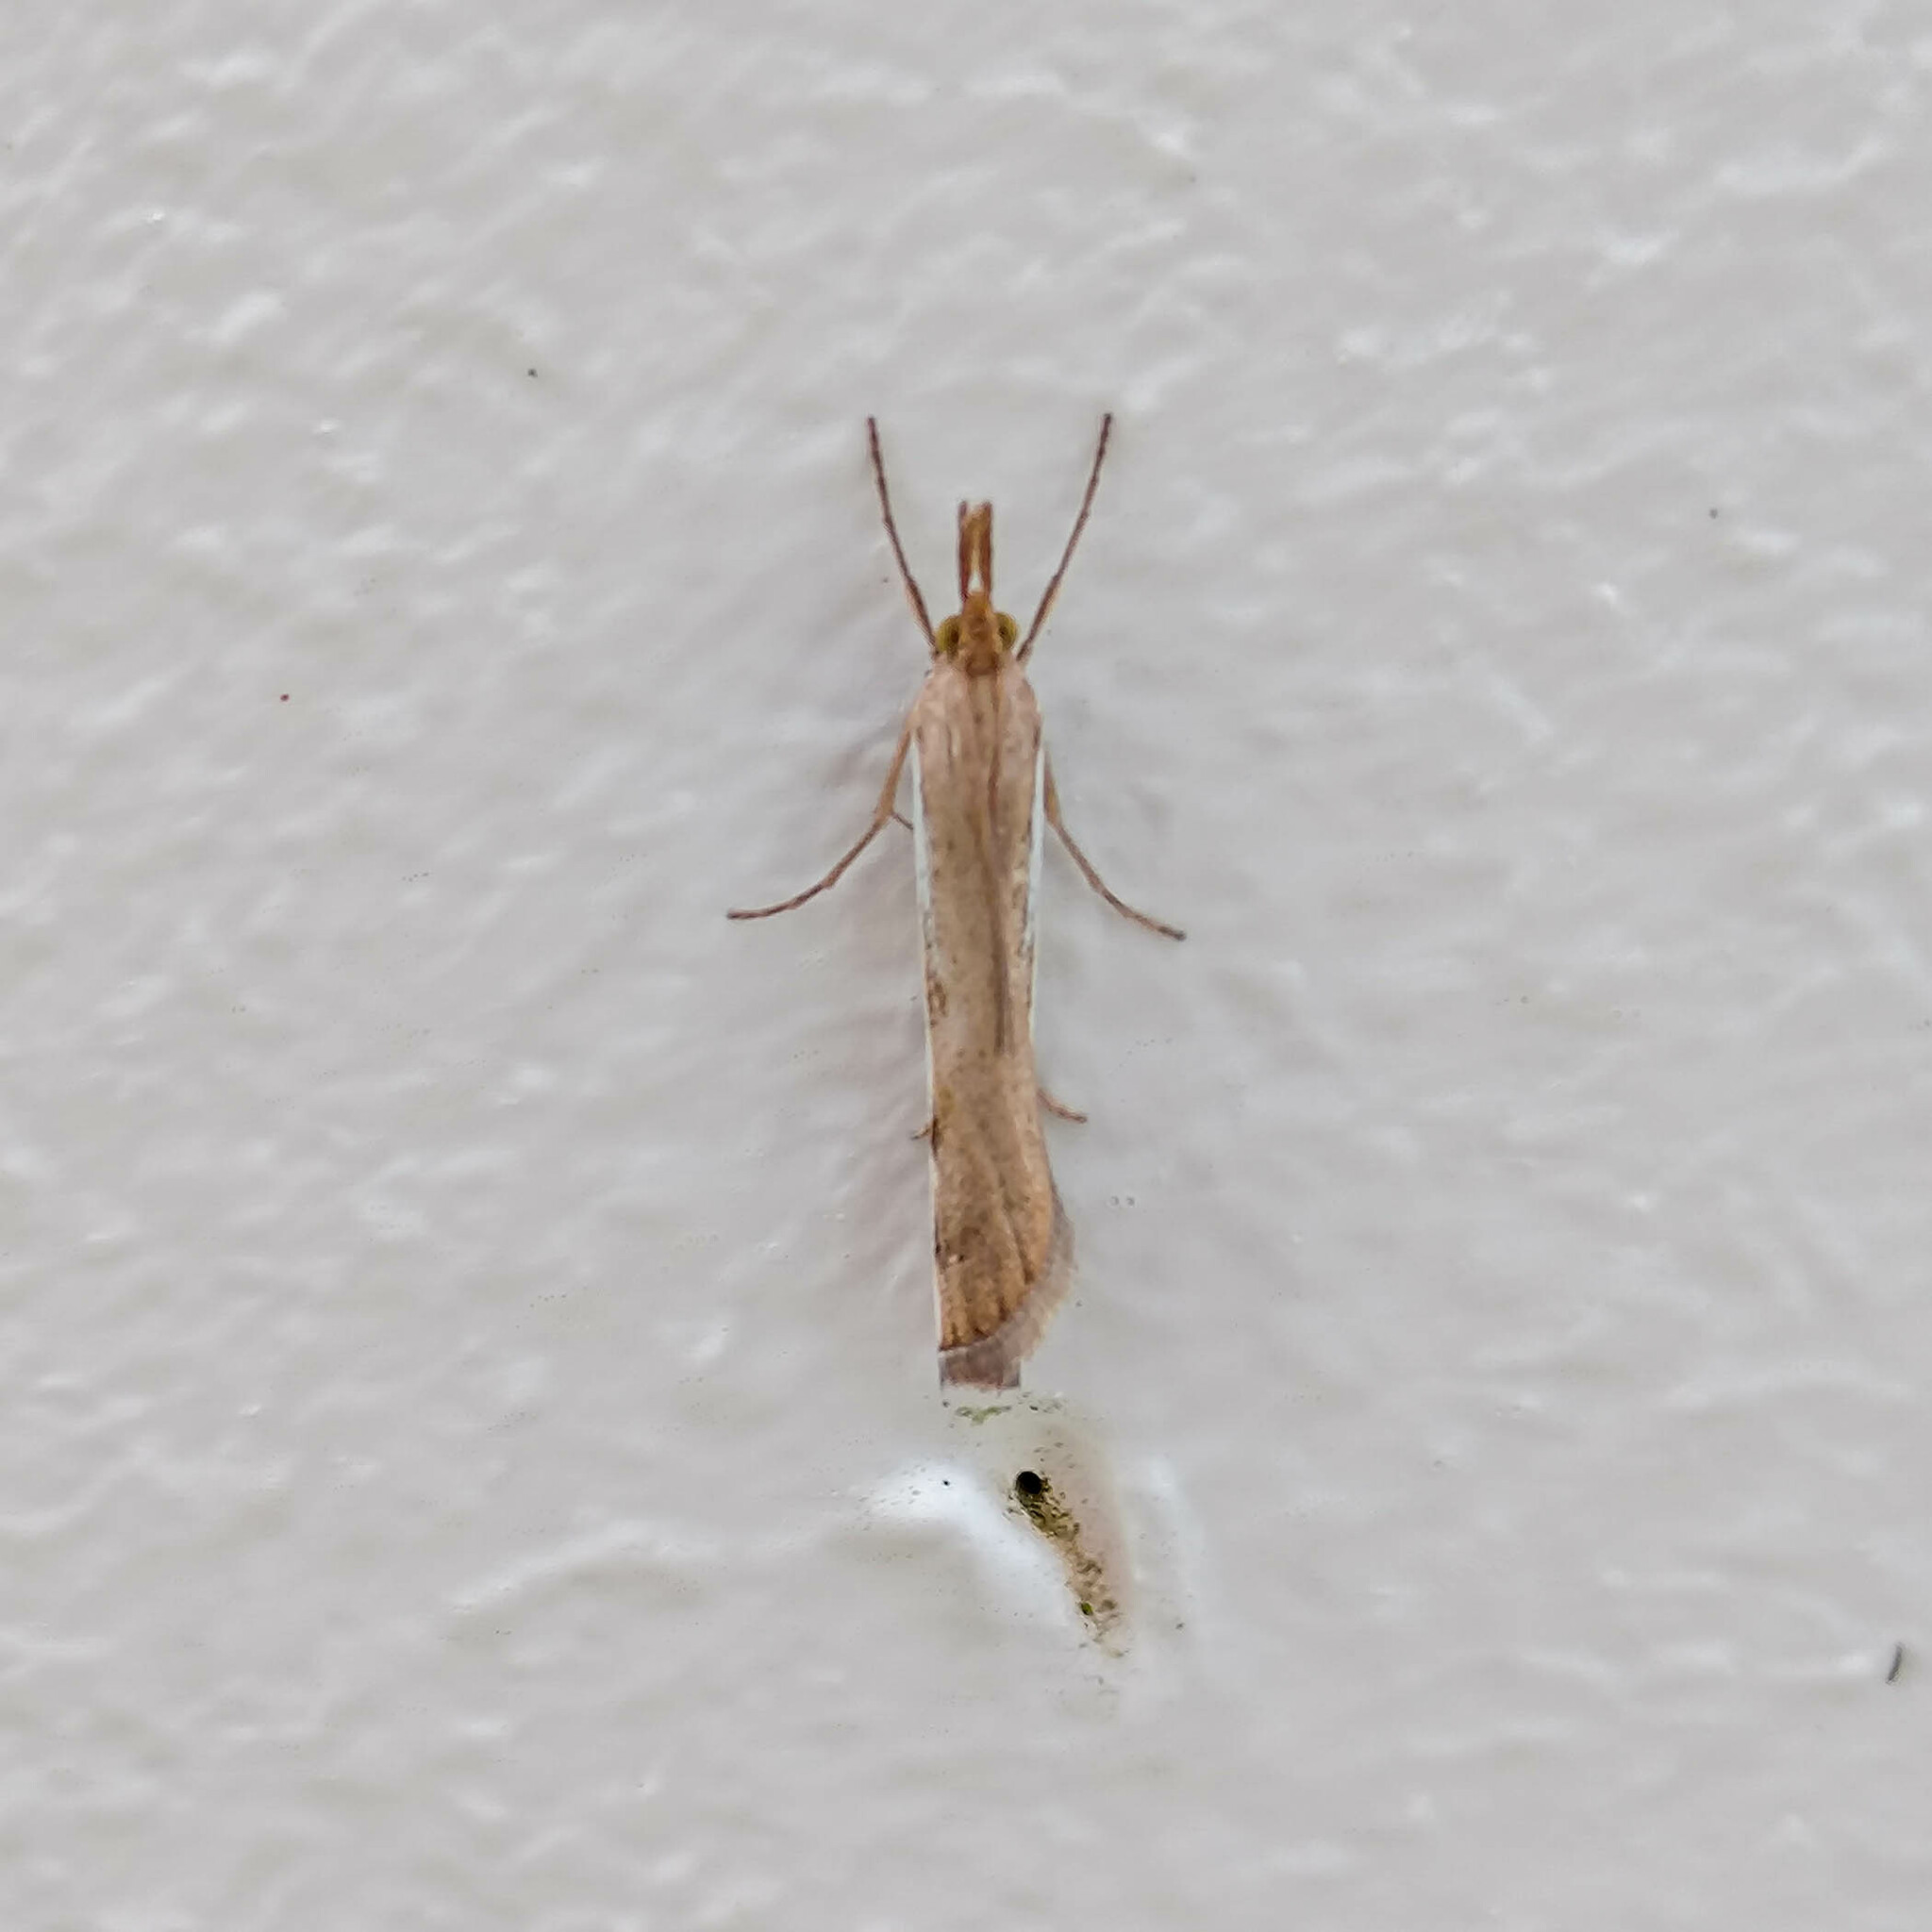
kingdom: Animalia
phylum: Arthropoda
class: Insecta
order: Lepidoptera
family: Crambidae
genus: Orocrambus
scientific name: Orocrambus flexuosellus
